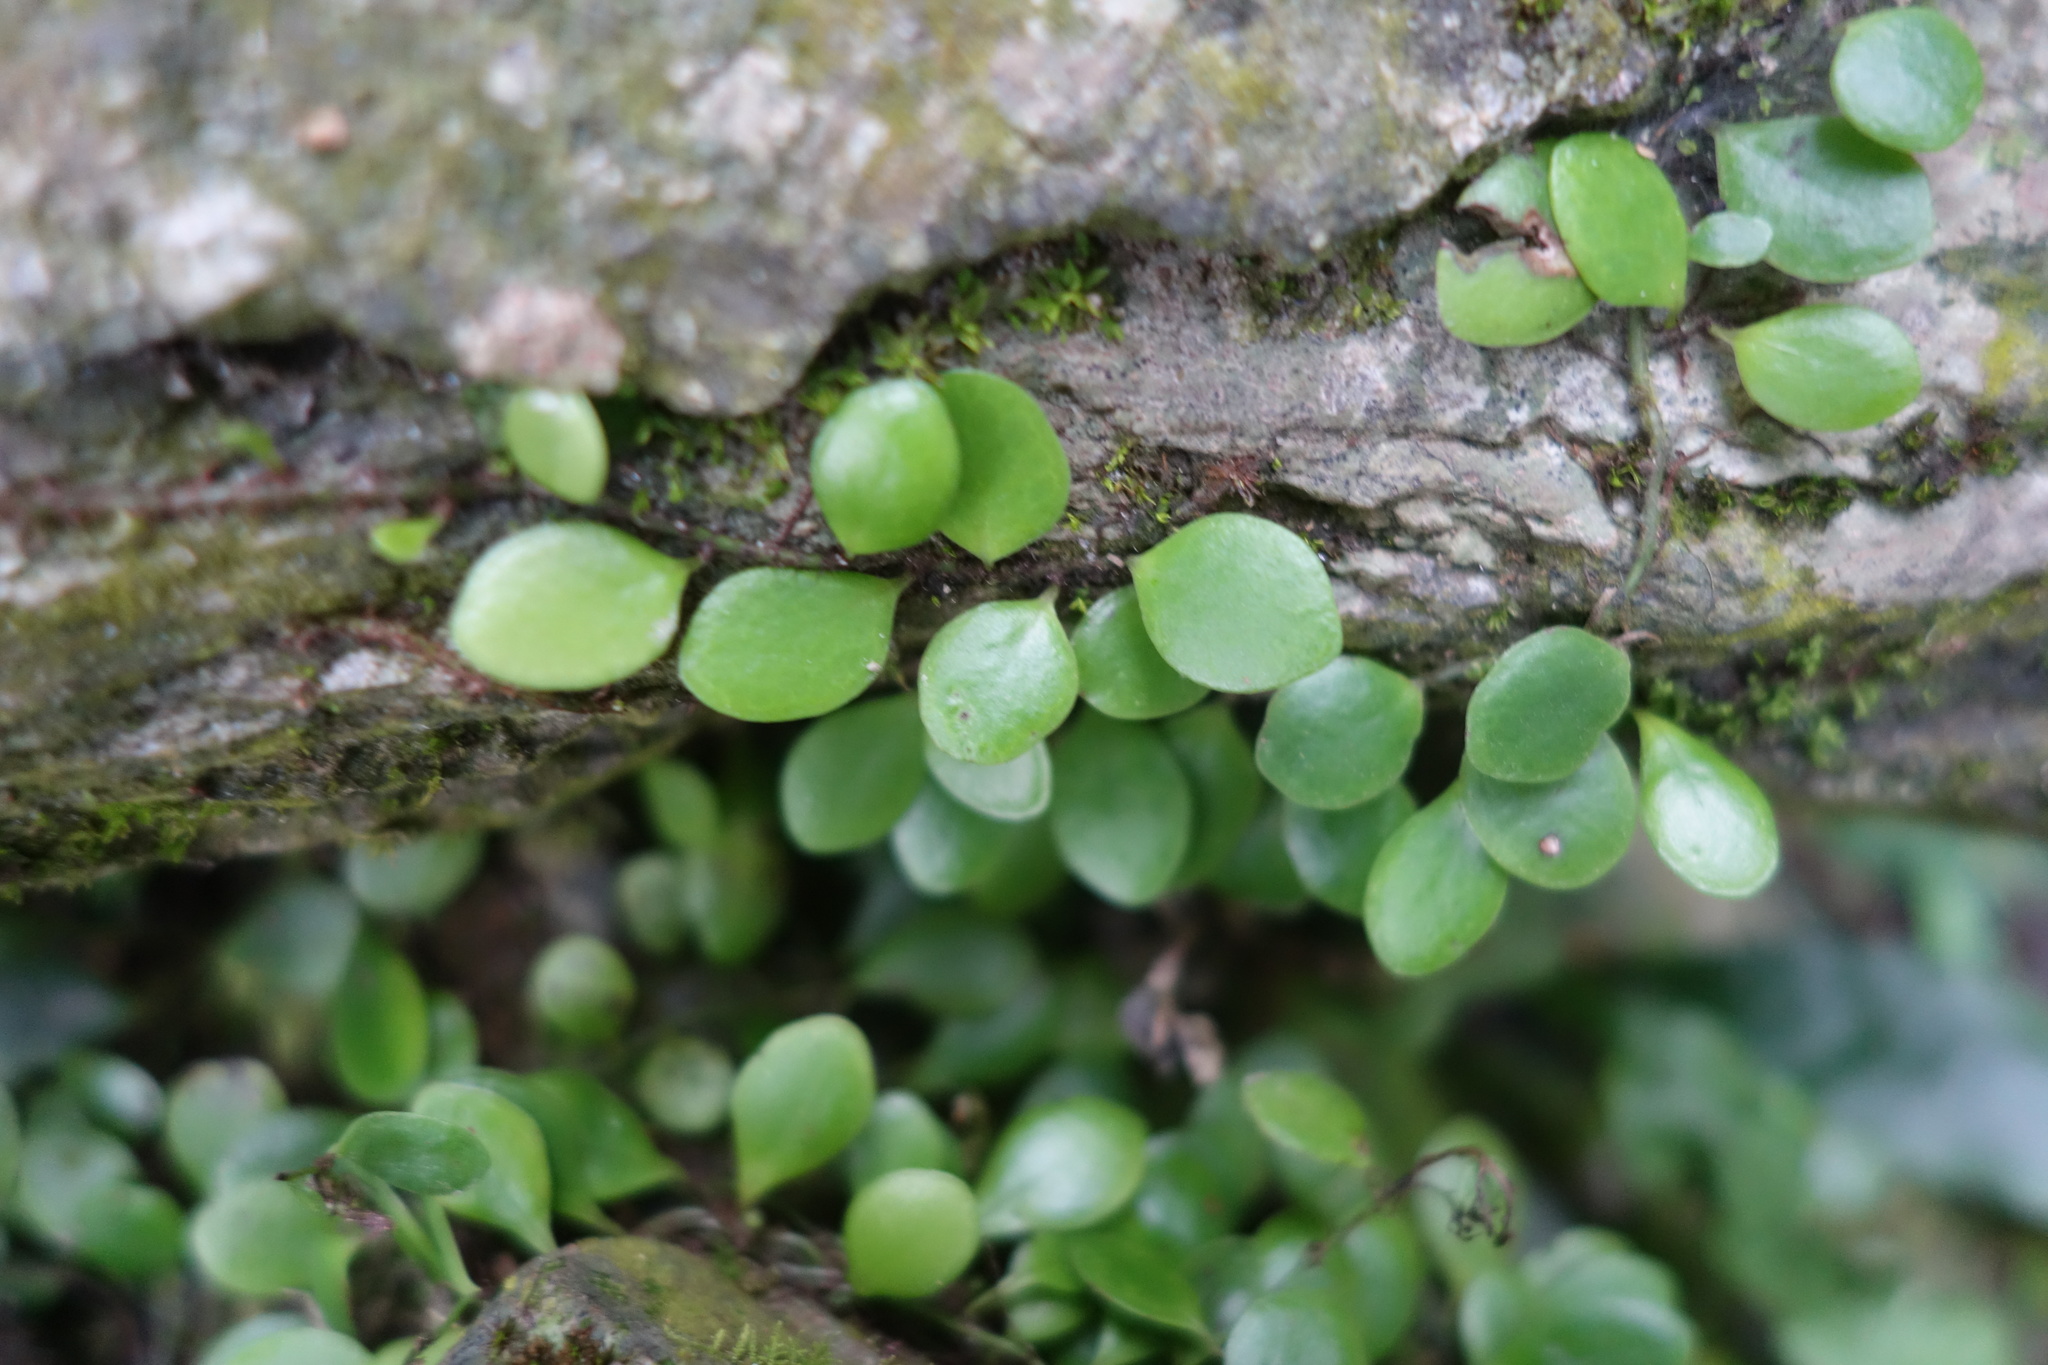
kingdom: Plantae
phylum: Tracheophyta
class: Polypodiopsida
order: Polypodiales
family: Polypodiaceae
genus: Lepisorus
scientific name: Lepisorus microphyllus
